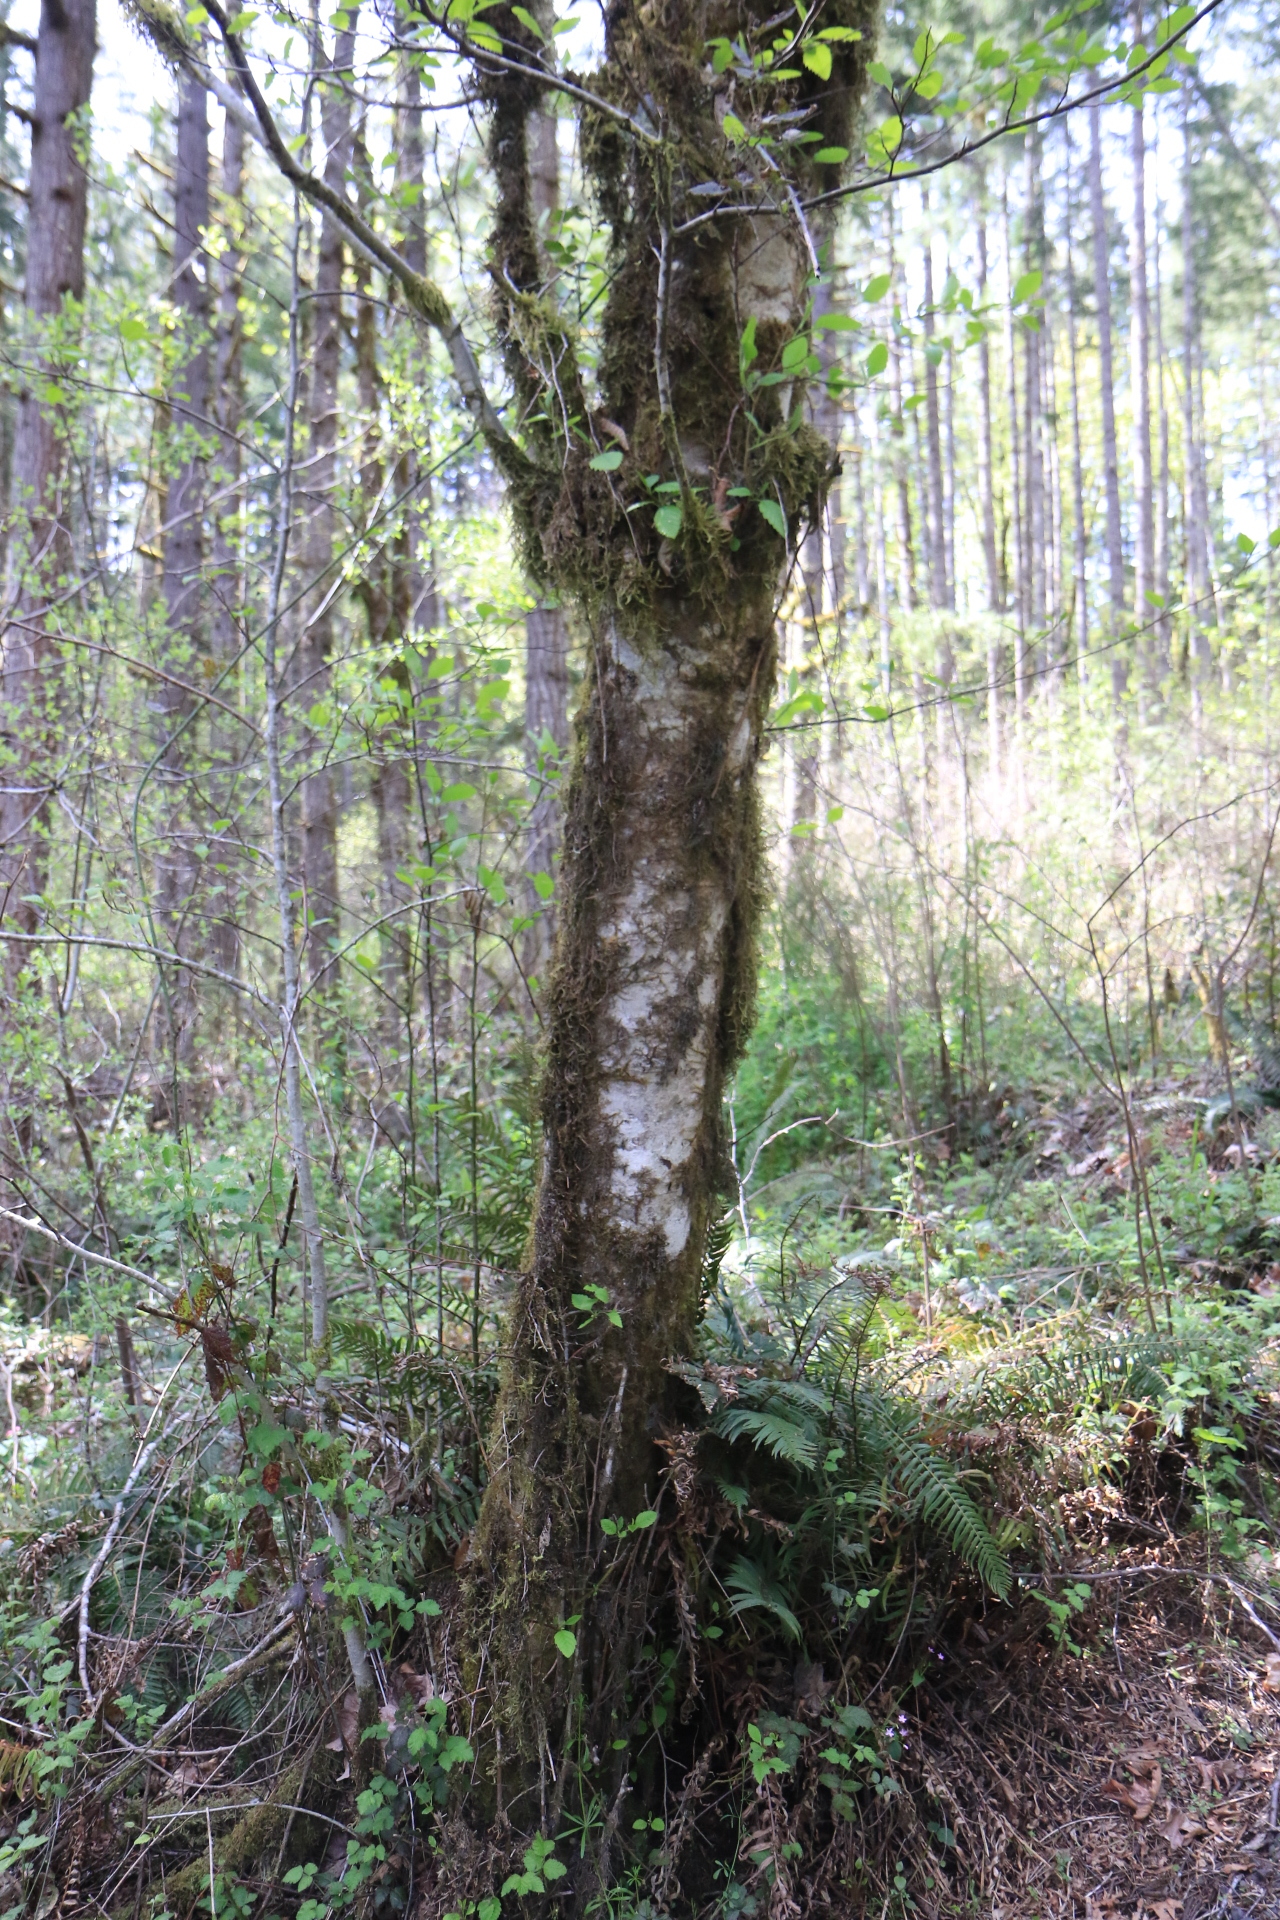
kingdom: Plantae
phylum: Tracheophyta
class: Magnoliopsida
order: Fagales
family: Betulaceae
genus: Alnus
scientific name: Alnus rubra
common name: Red alder
